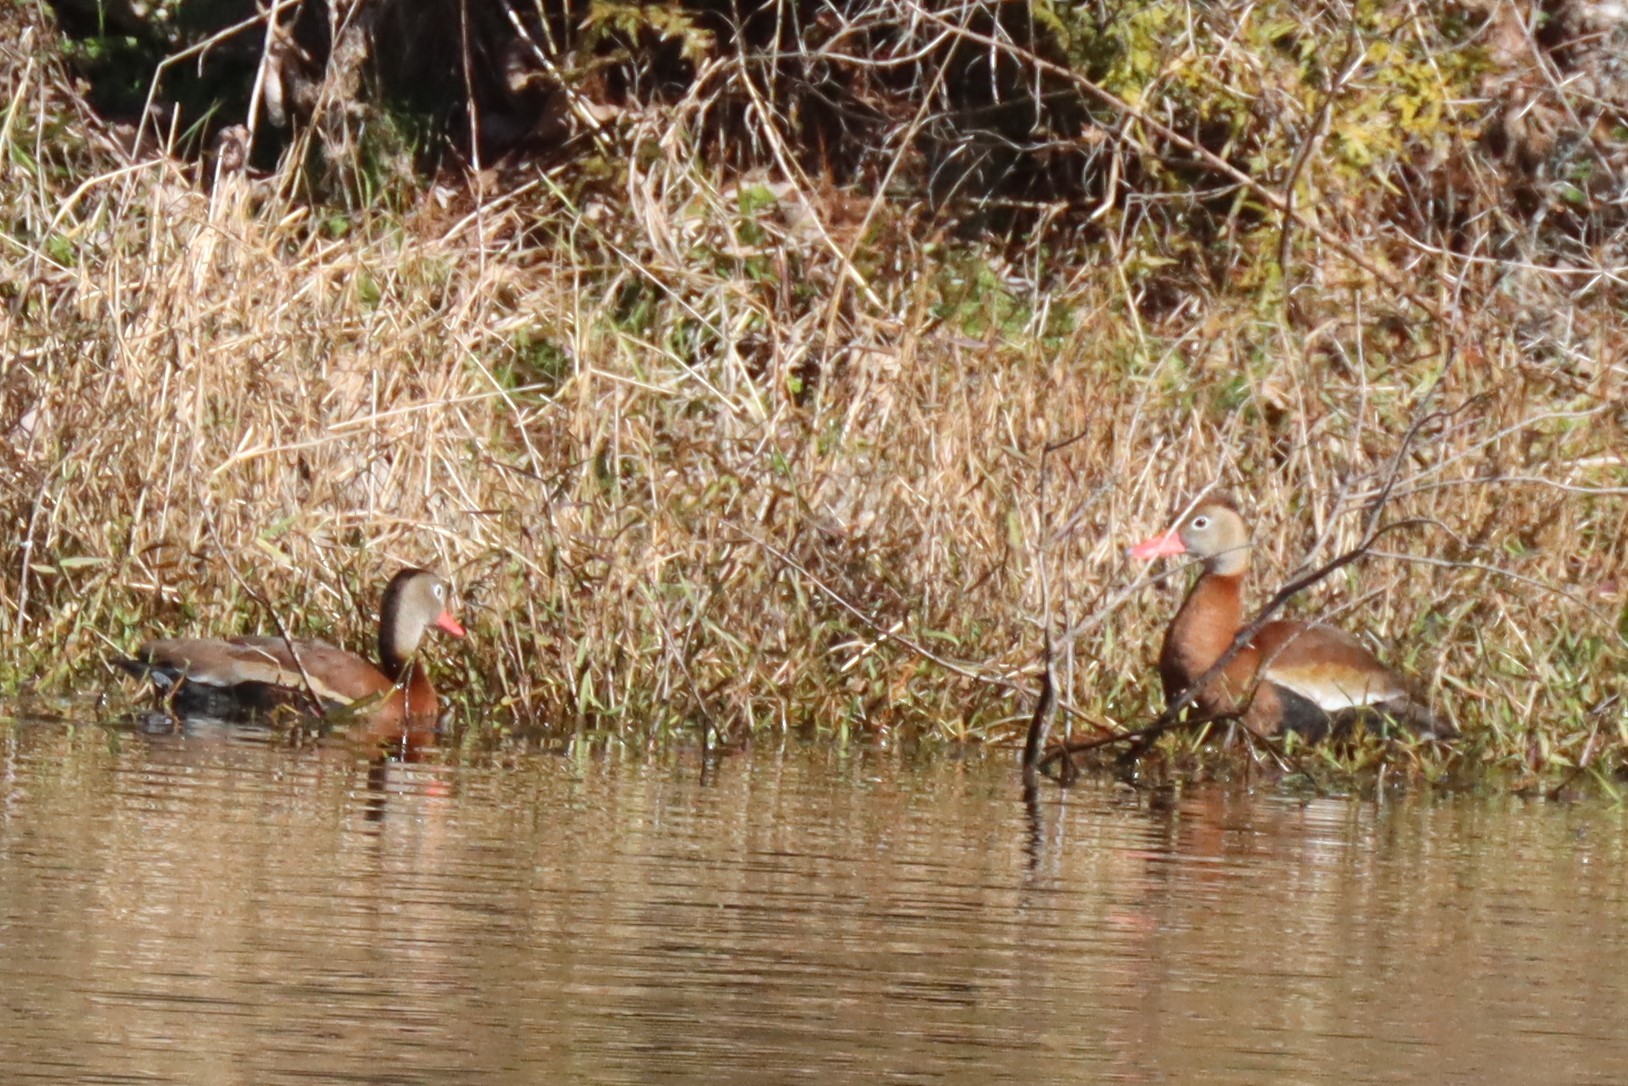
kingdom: Animalia
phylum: Chordata
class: Aves
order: Anseriformes
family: Anatidae
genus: Dendrocygna
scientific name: Dendrocygna autumnalis
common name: Black-bellied whistling duck
